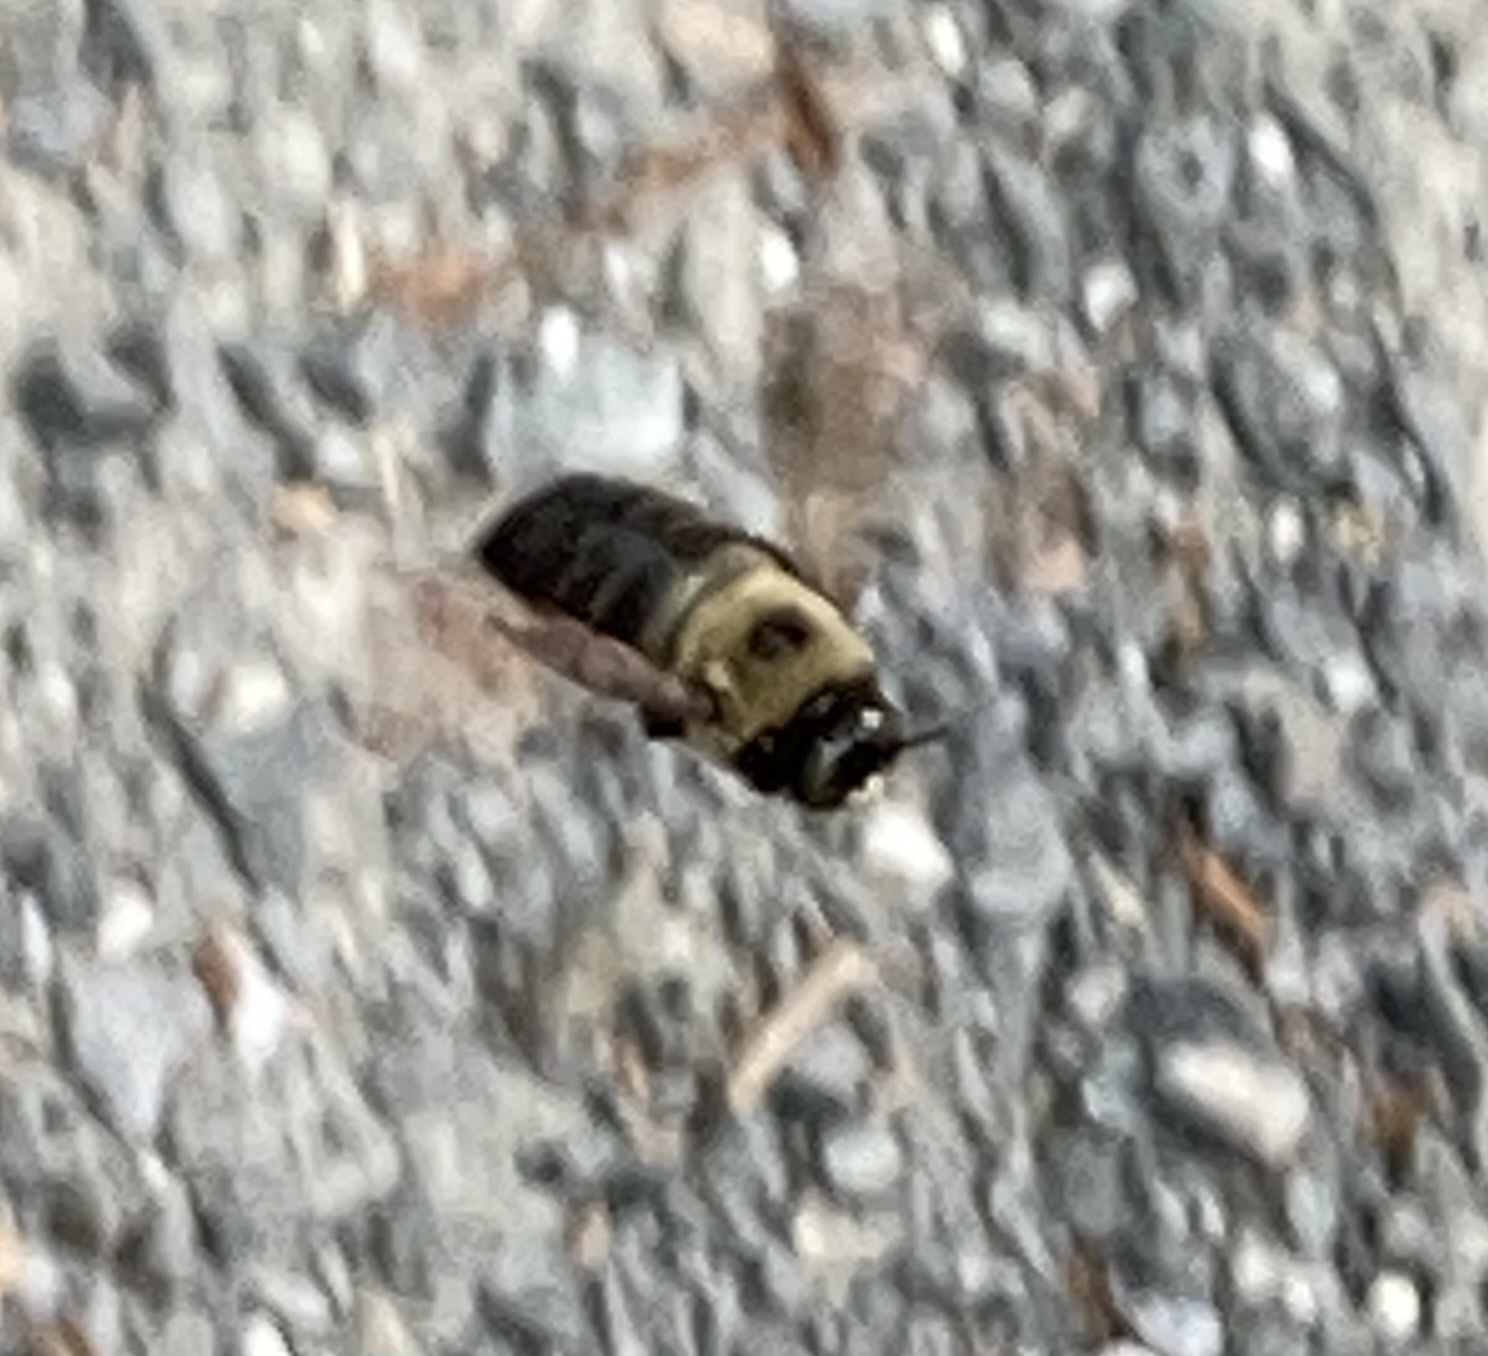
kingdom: Animalia
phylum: Arthropoda
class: Insecta
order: Hymenoptera
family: Apidae
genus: Xylocopa
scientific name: Xylocopa virginica
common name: Carpenter bee
